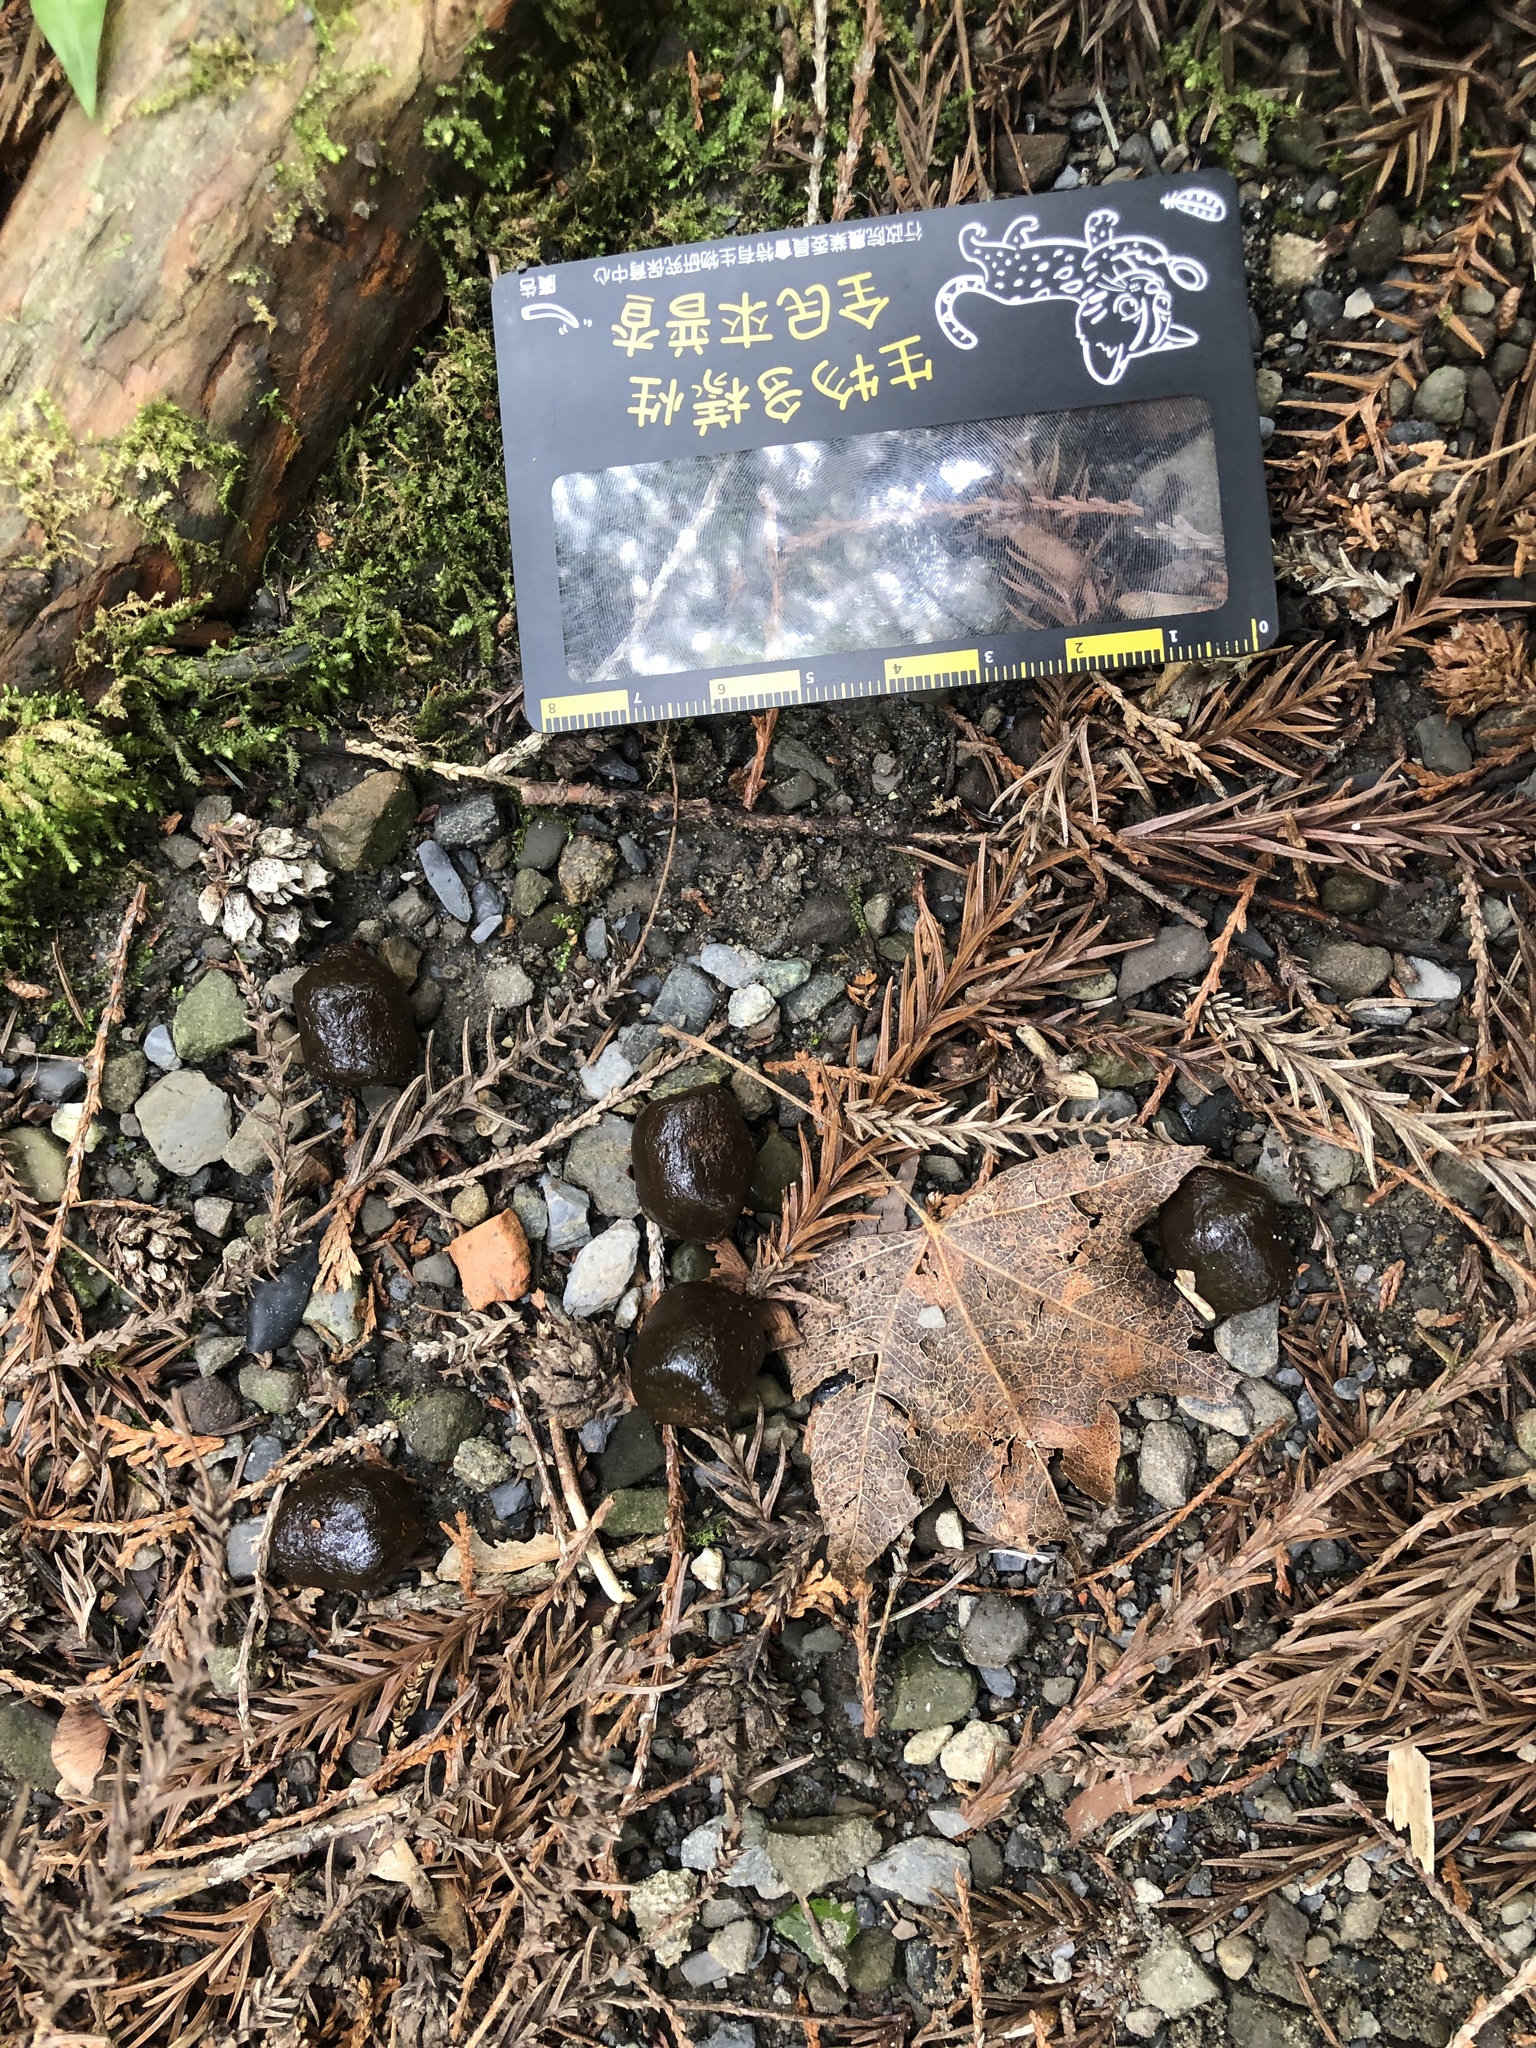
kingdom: Animalia
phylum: Chordata
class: Mammalia
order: Artiodactyla
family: Cervidae
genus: Rusa
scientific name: Rusa unicolor
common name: Sambar
